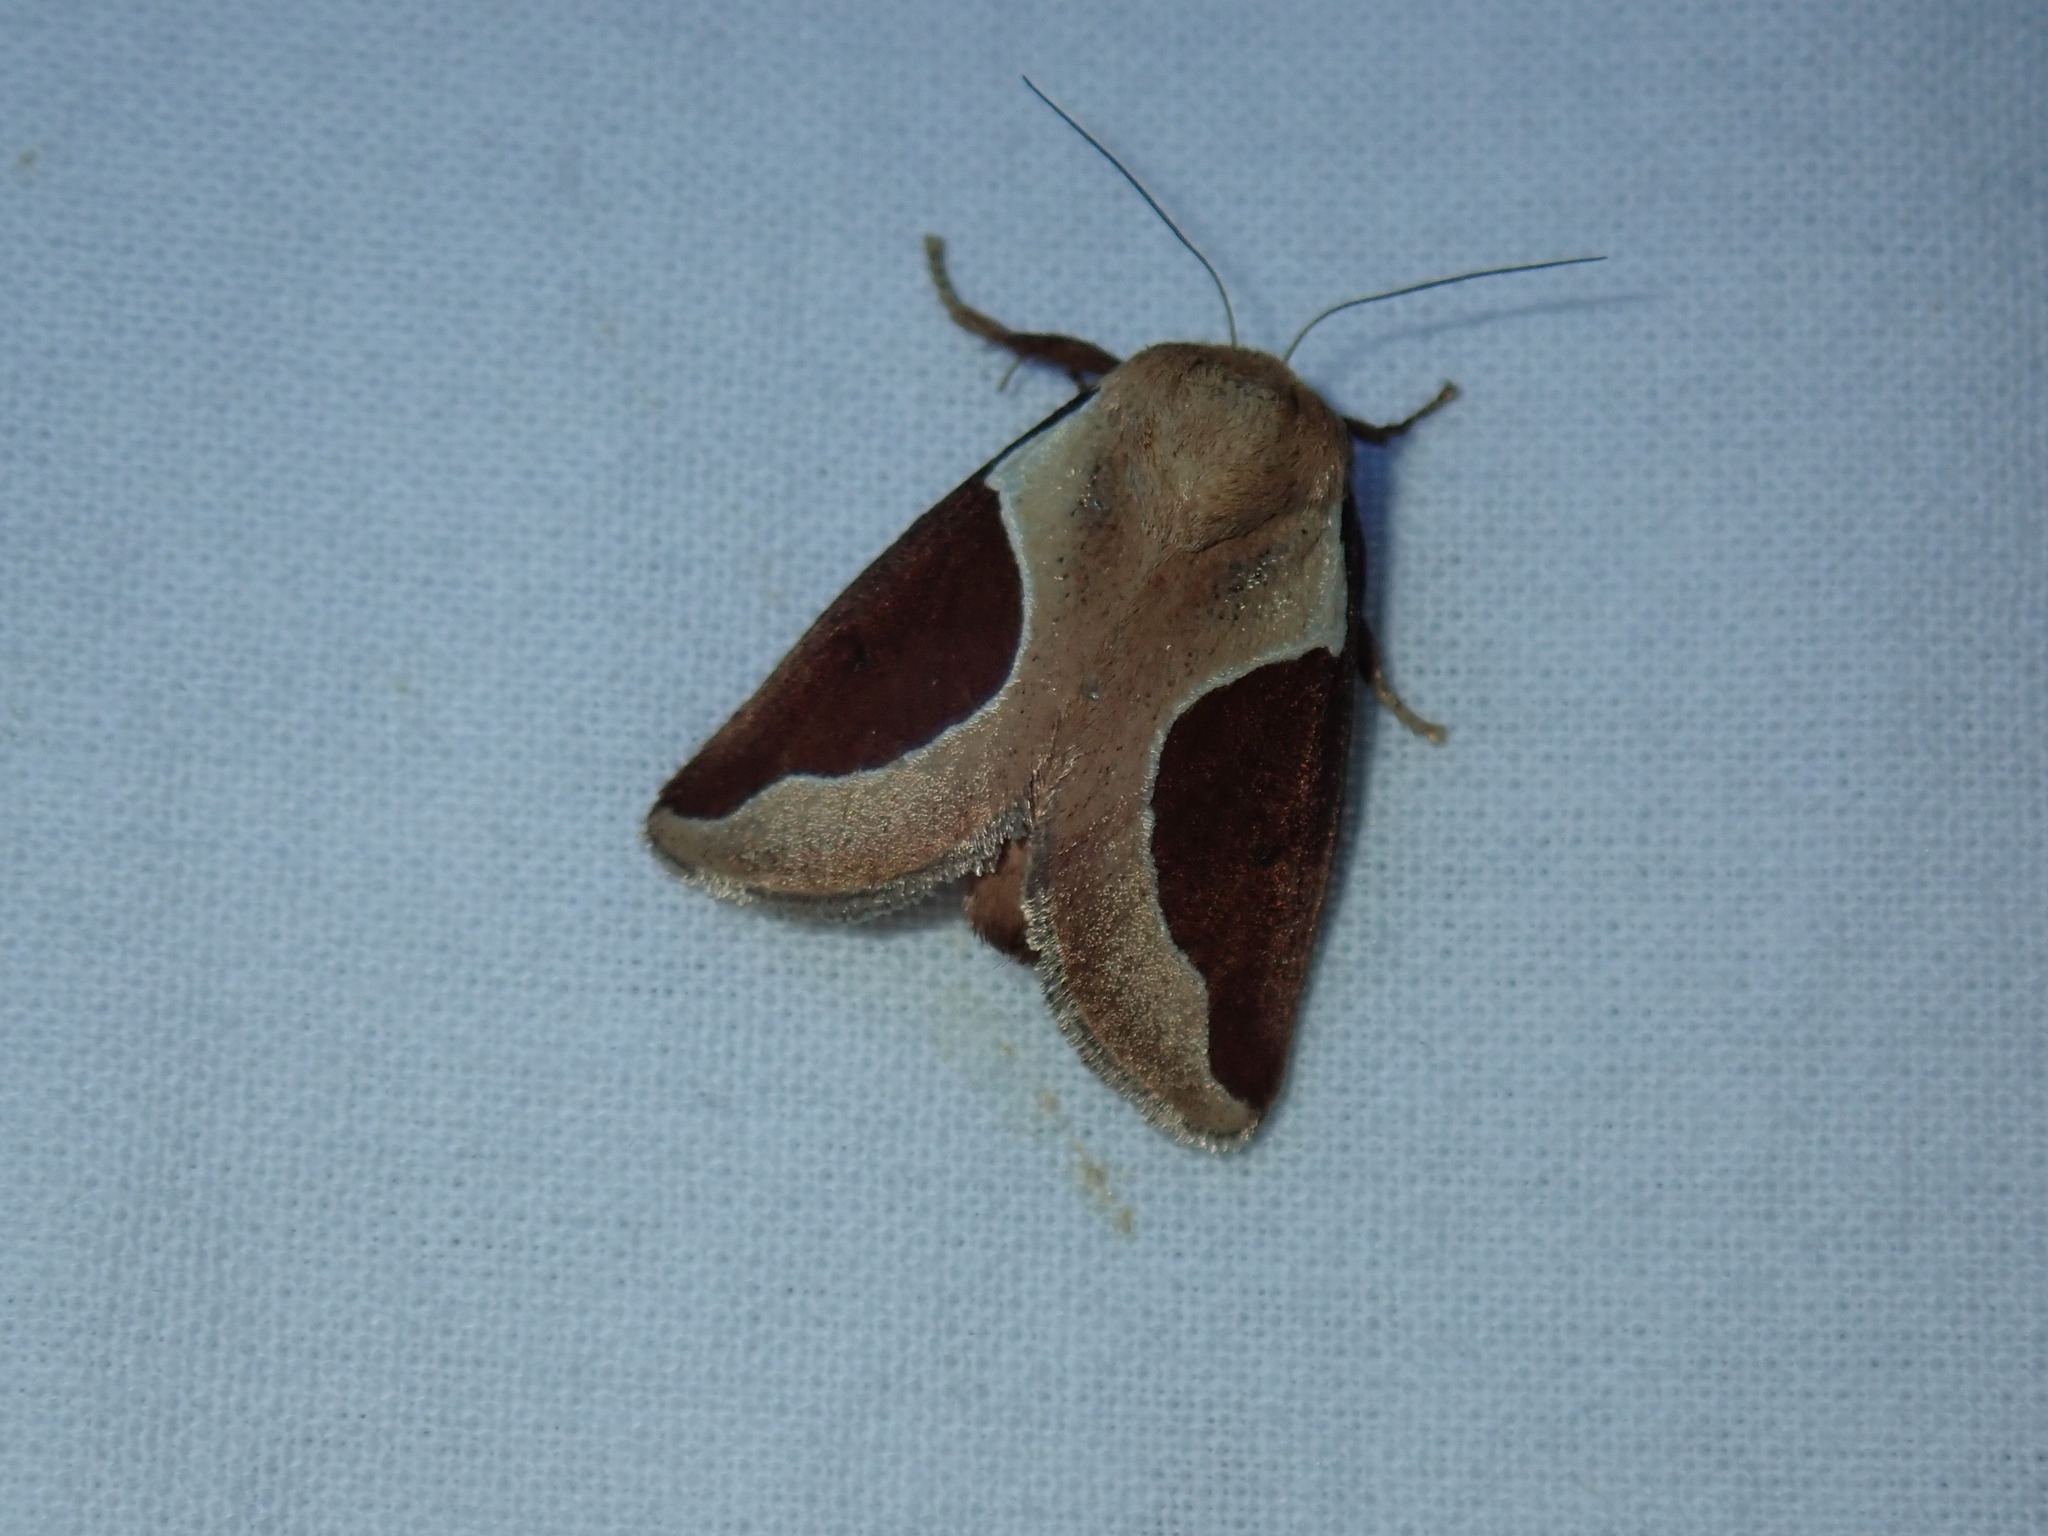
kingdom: Animalia
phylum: Arthropoda
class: Insecta
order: Lepidoptera
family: Limacodidae
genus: Prolimacodes
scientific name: Prolimacodes badia
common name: Skiff moth
